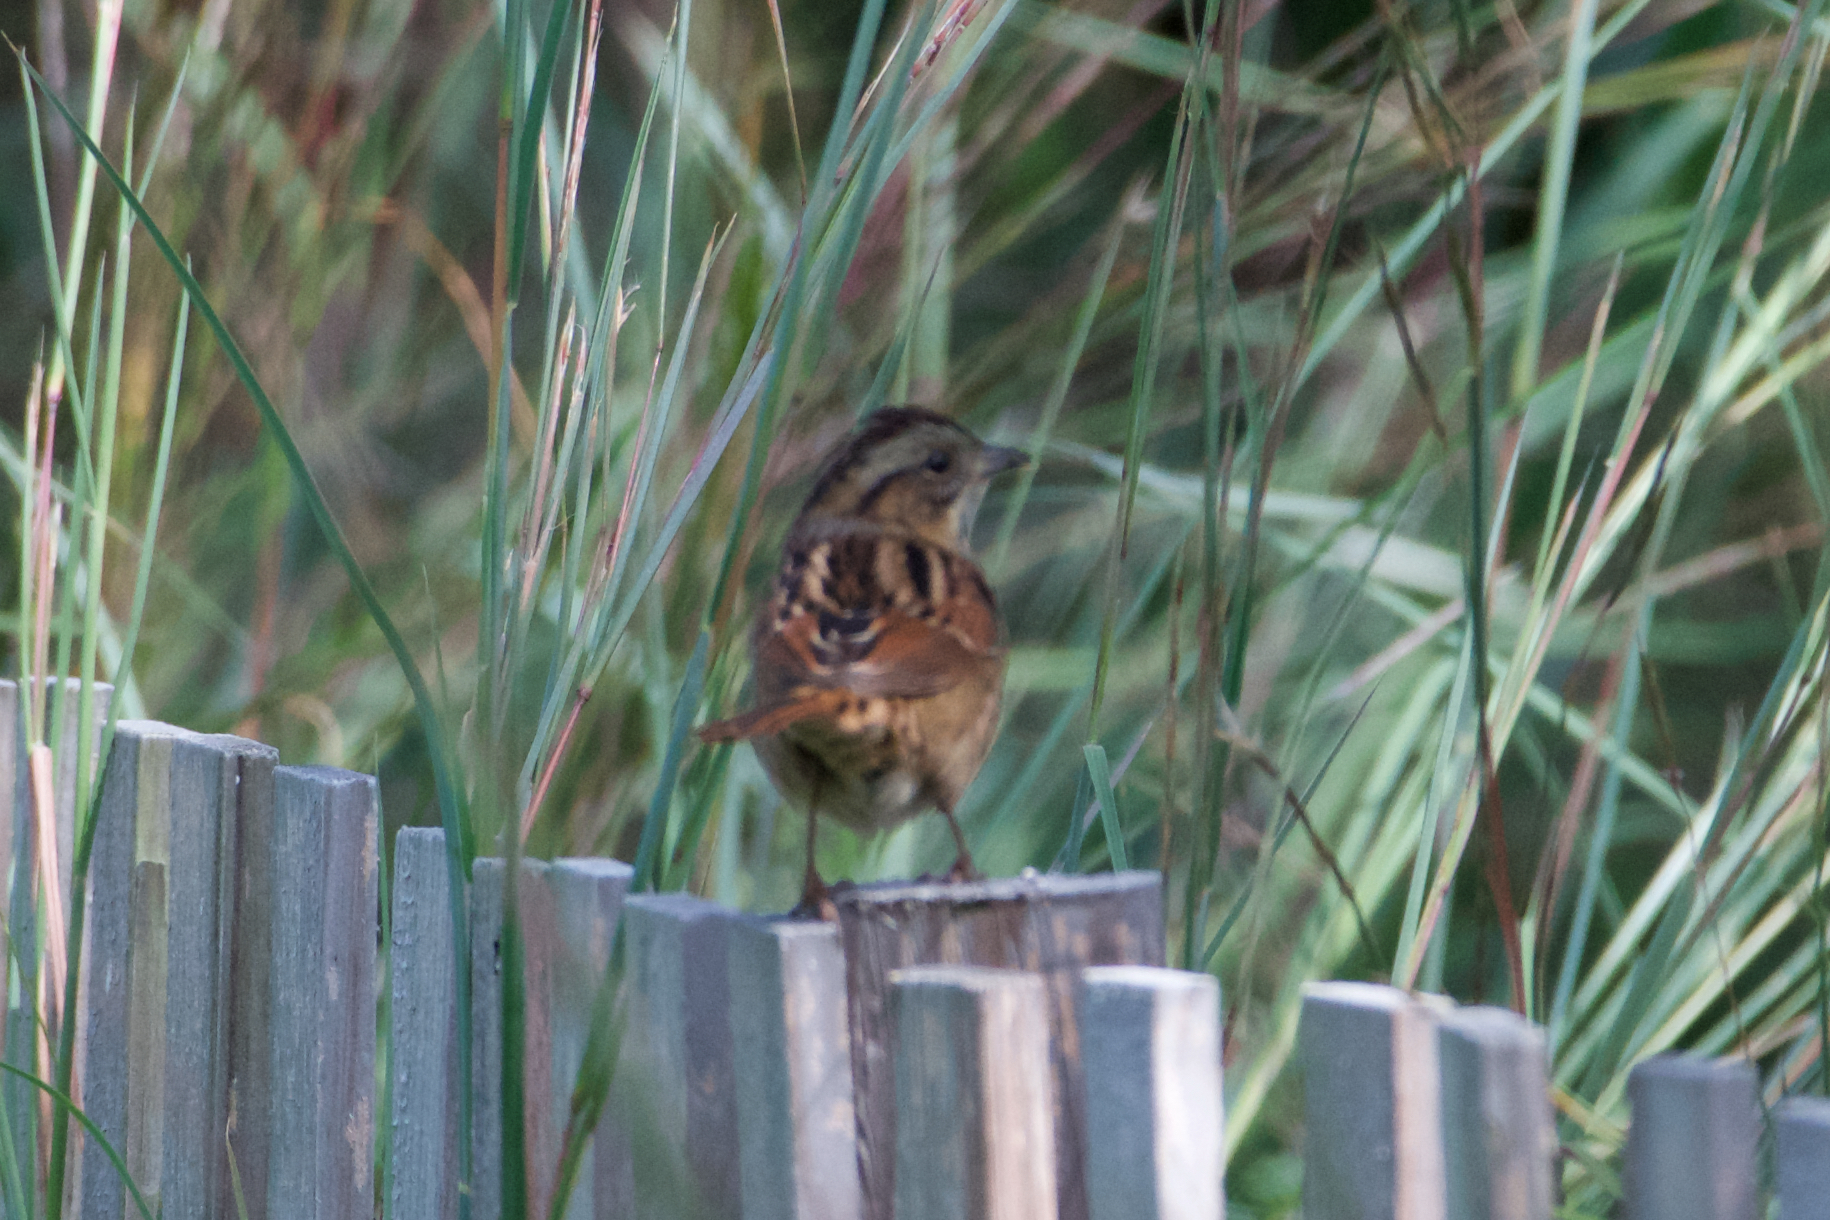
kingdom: Animalia
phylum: Chordata
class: Aves
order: Passeriformes
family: Passerellidae
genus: Melospiza
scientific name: Melospiza georgiana
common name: Swamp sparrow
